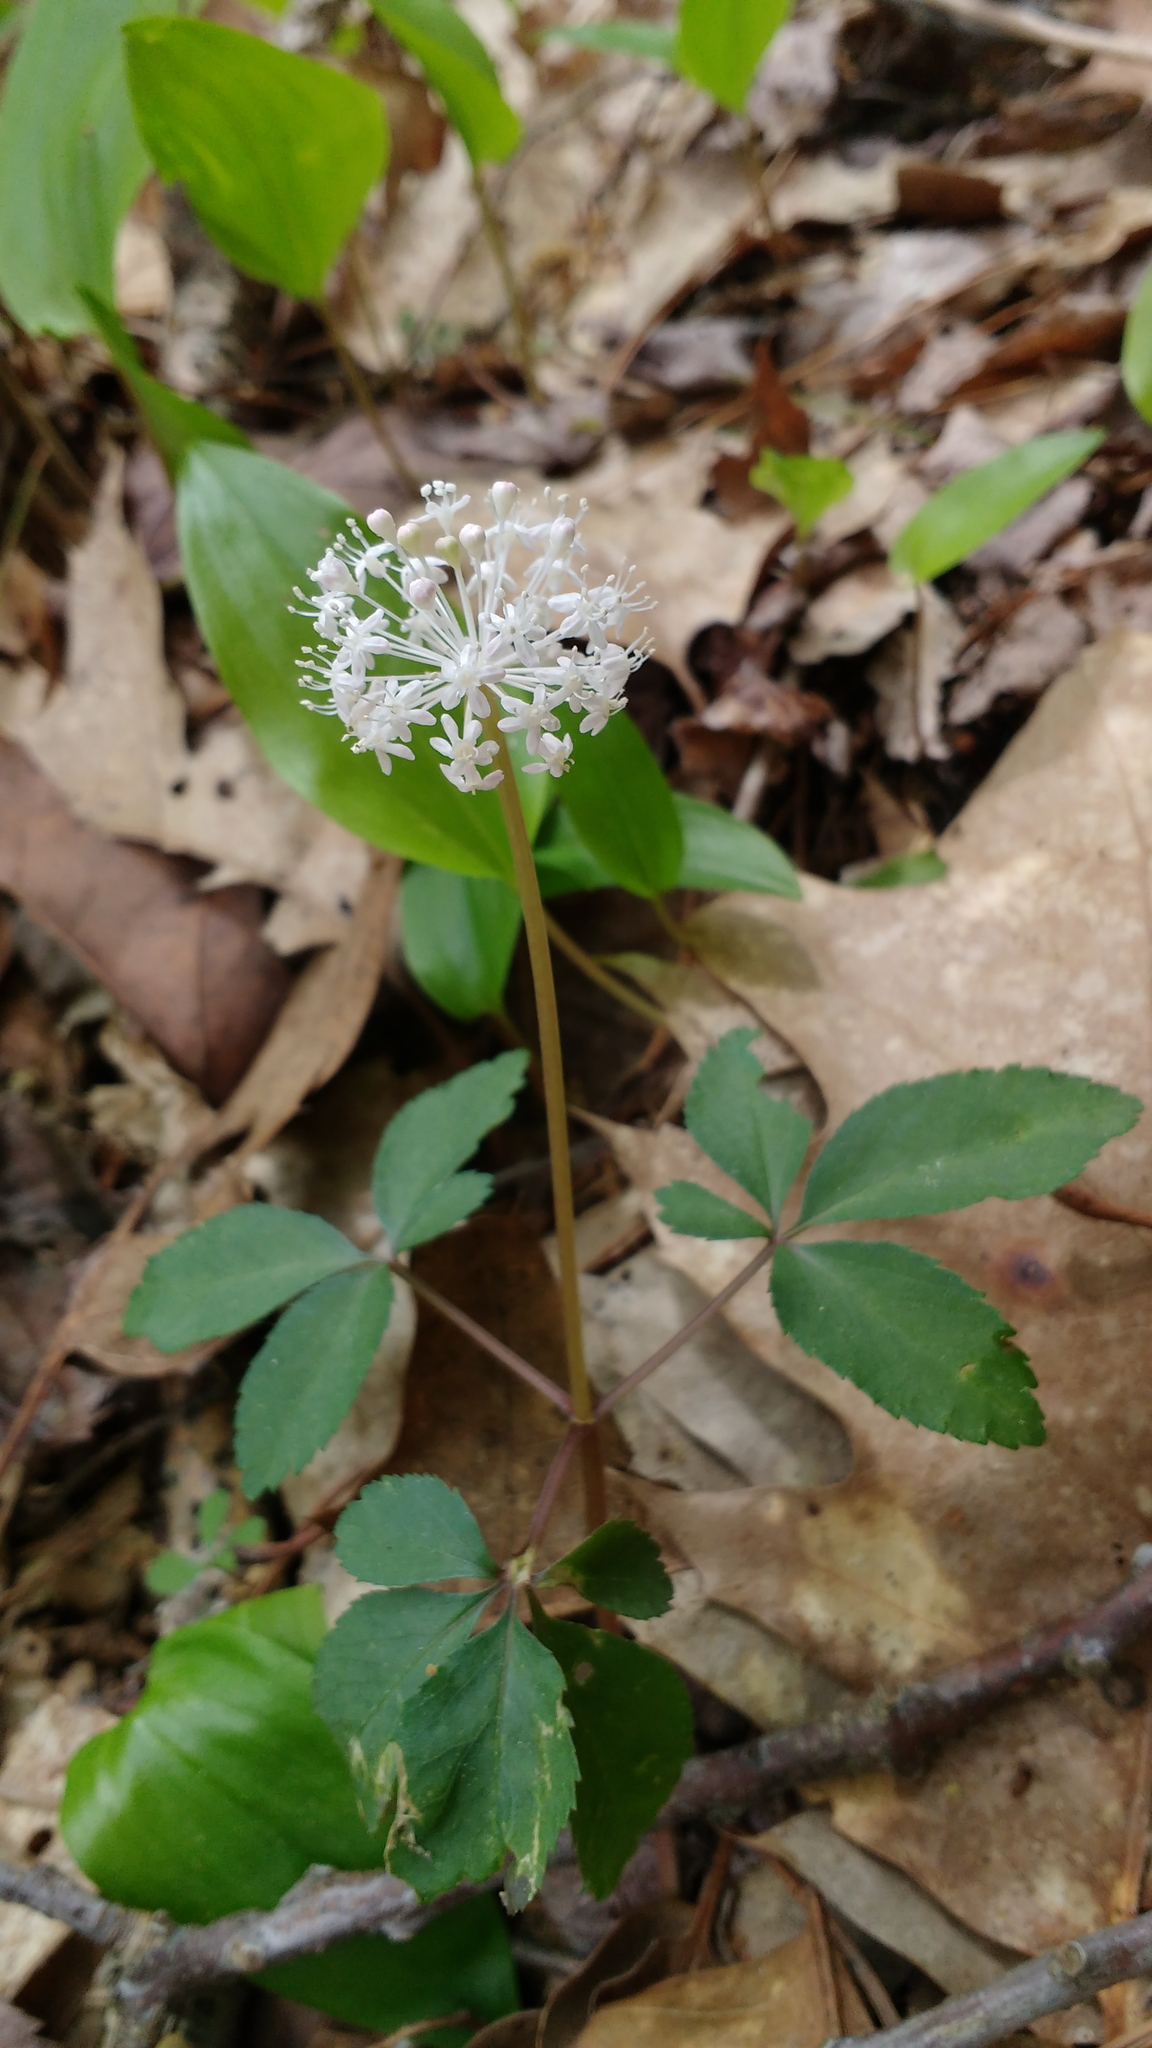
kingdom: Plantae
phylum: Tracheophyta
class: Magnoliopsida
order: Apiales
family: Araliaceae
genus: Panax
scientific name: Panax trifolius
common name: Dwarf ginseng
